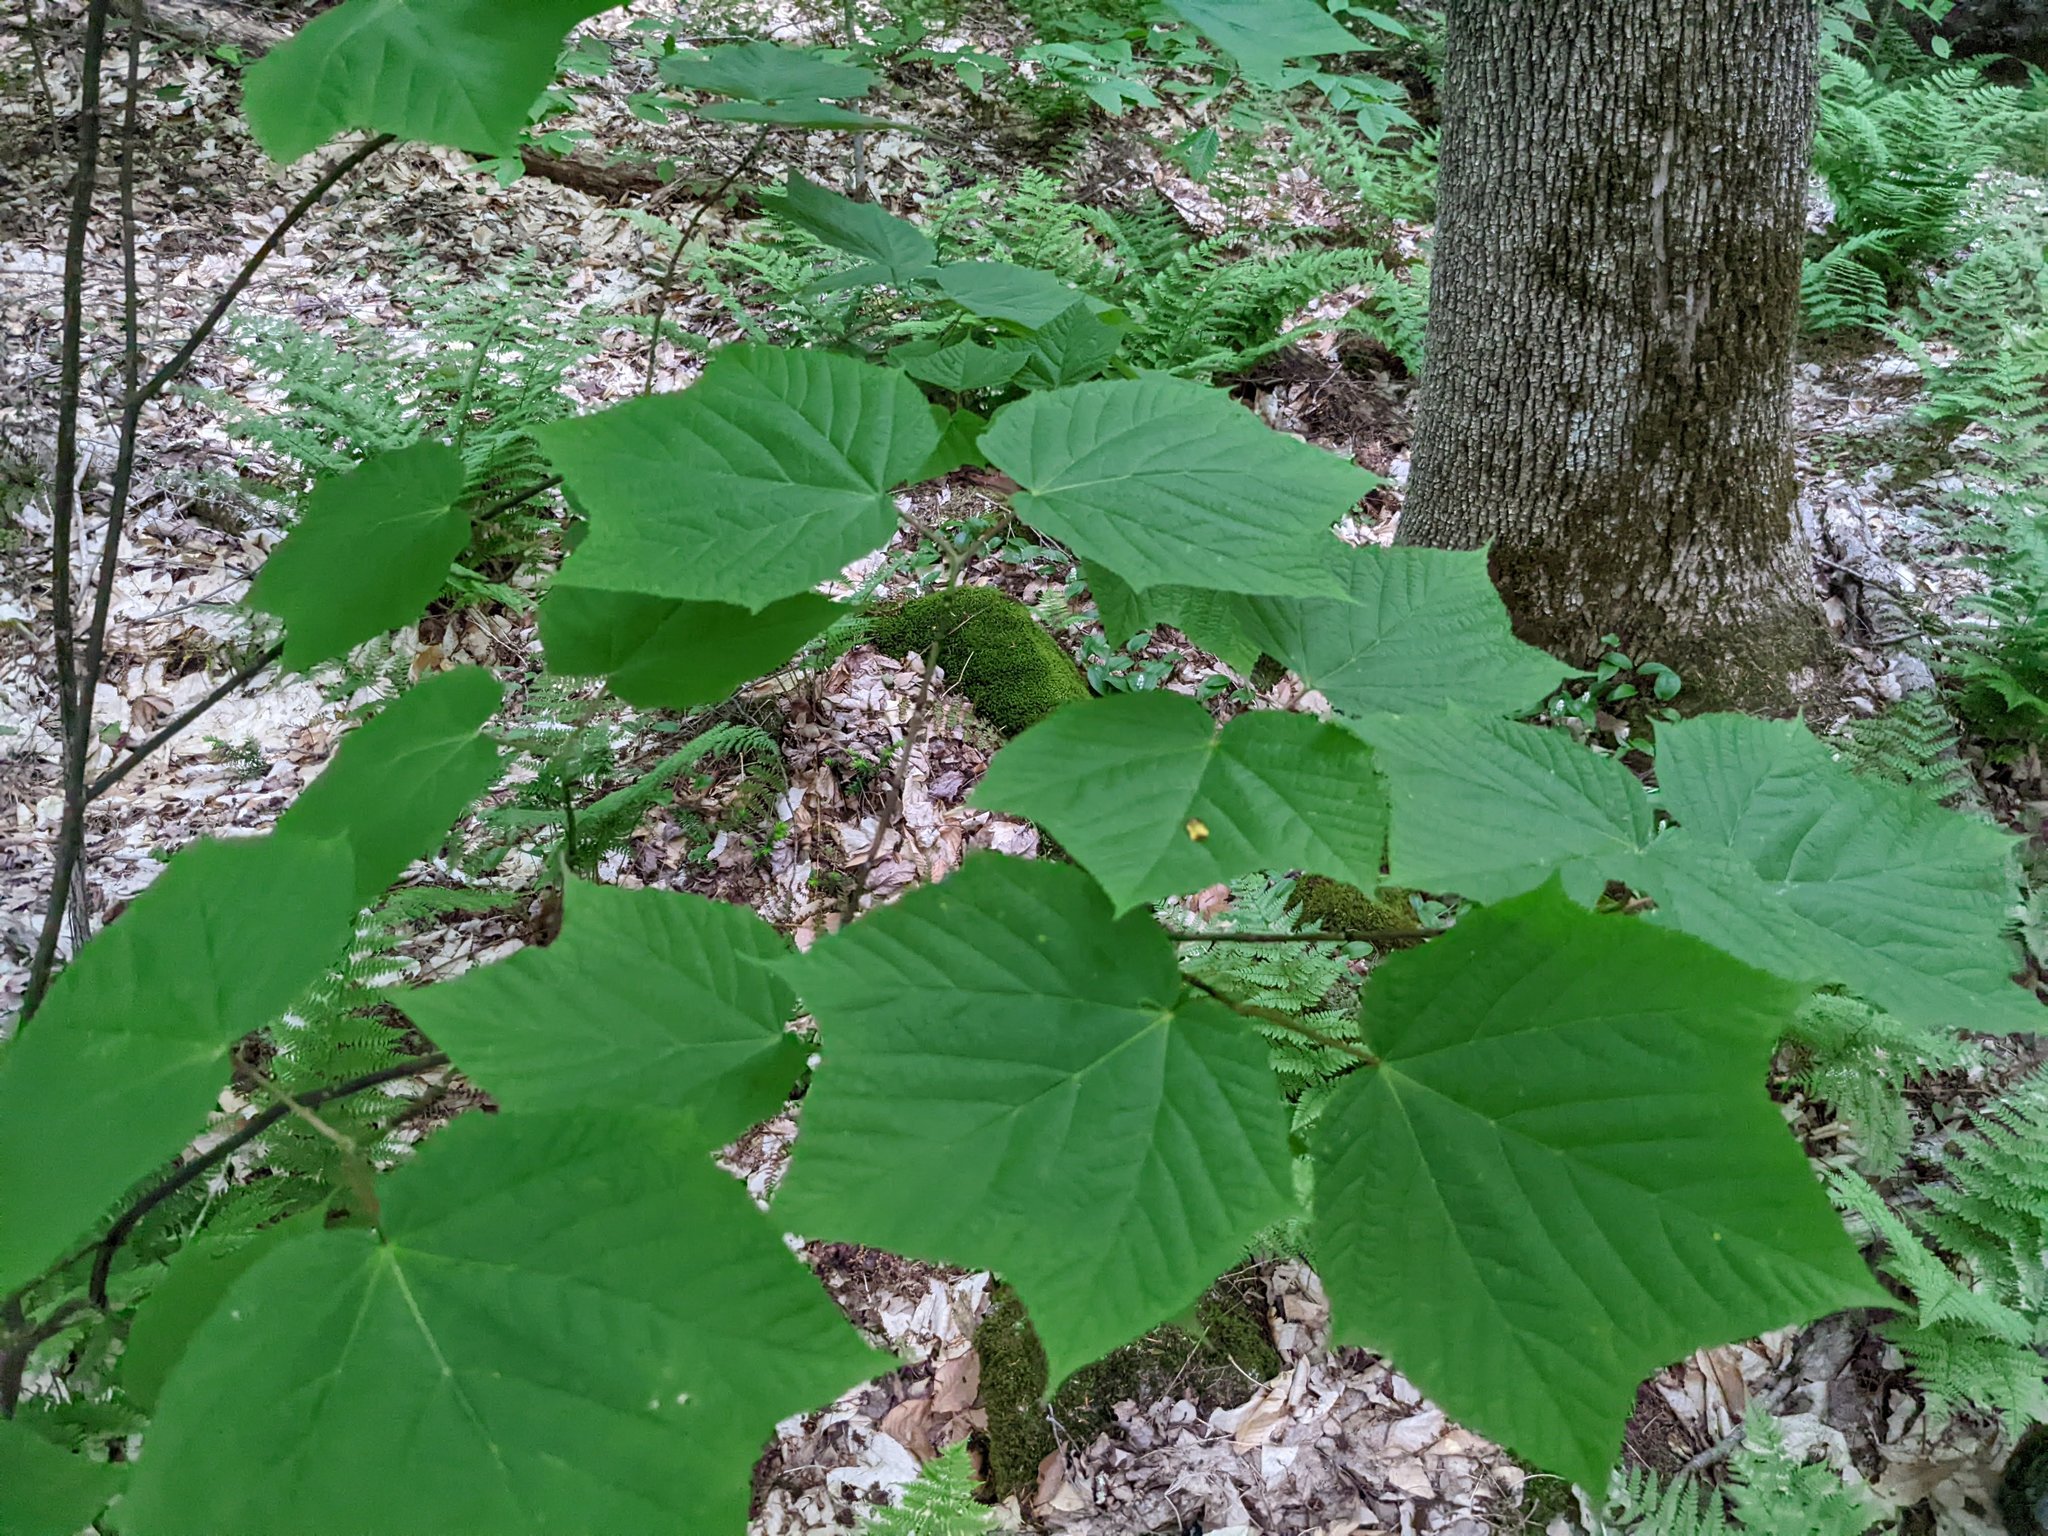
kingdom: Plantae
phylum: Tracheophyta
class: Magnoliopsida
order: Sapindales
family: Sapindaceae
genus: Acer
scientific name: Acer pensylvanicum
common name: Moosewood
